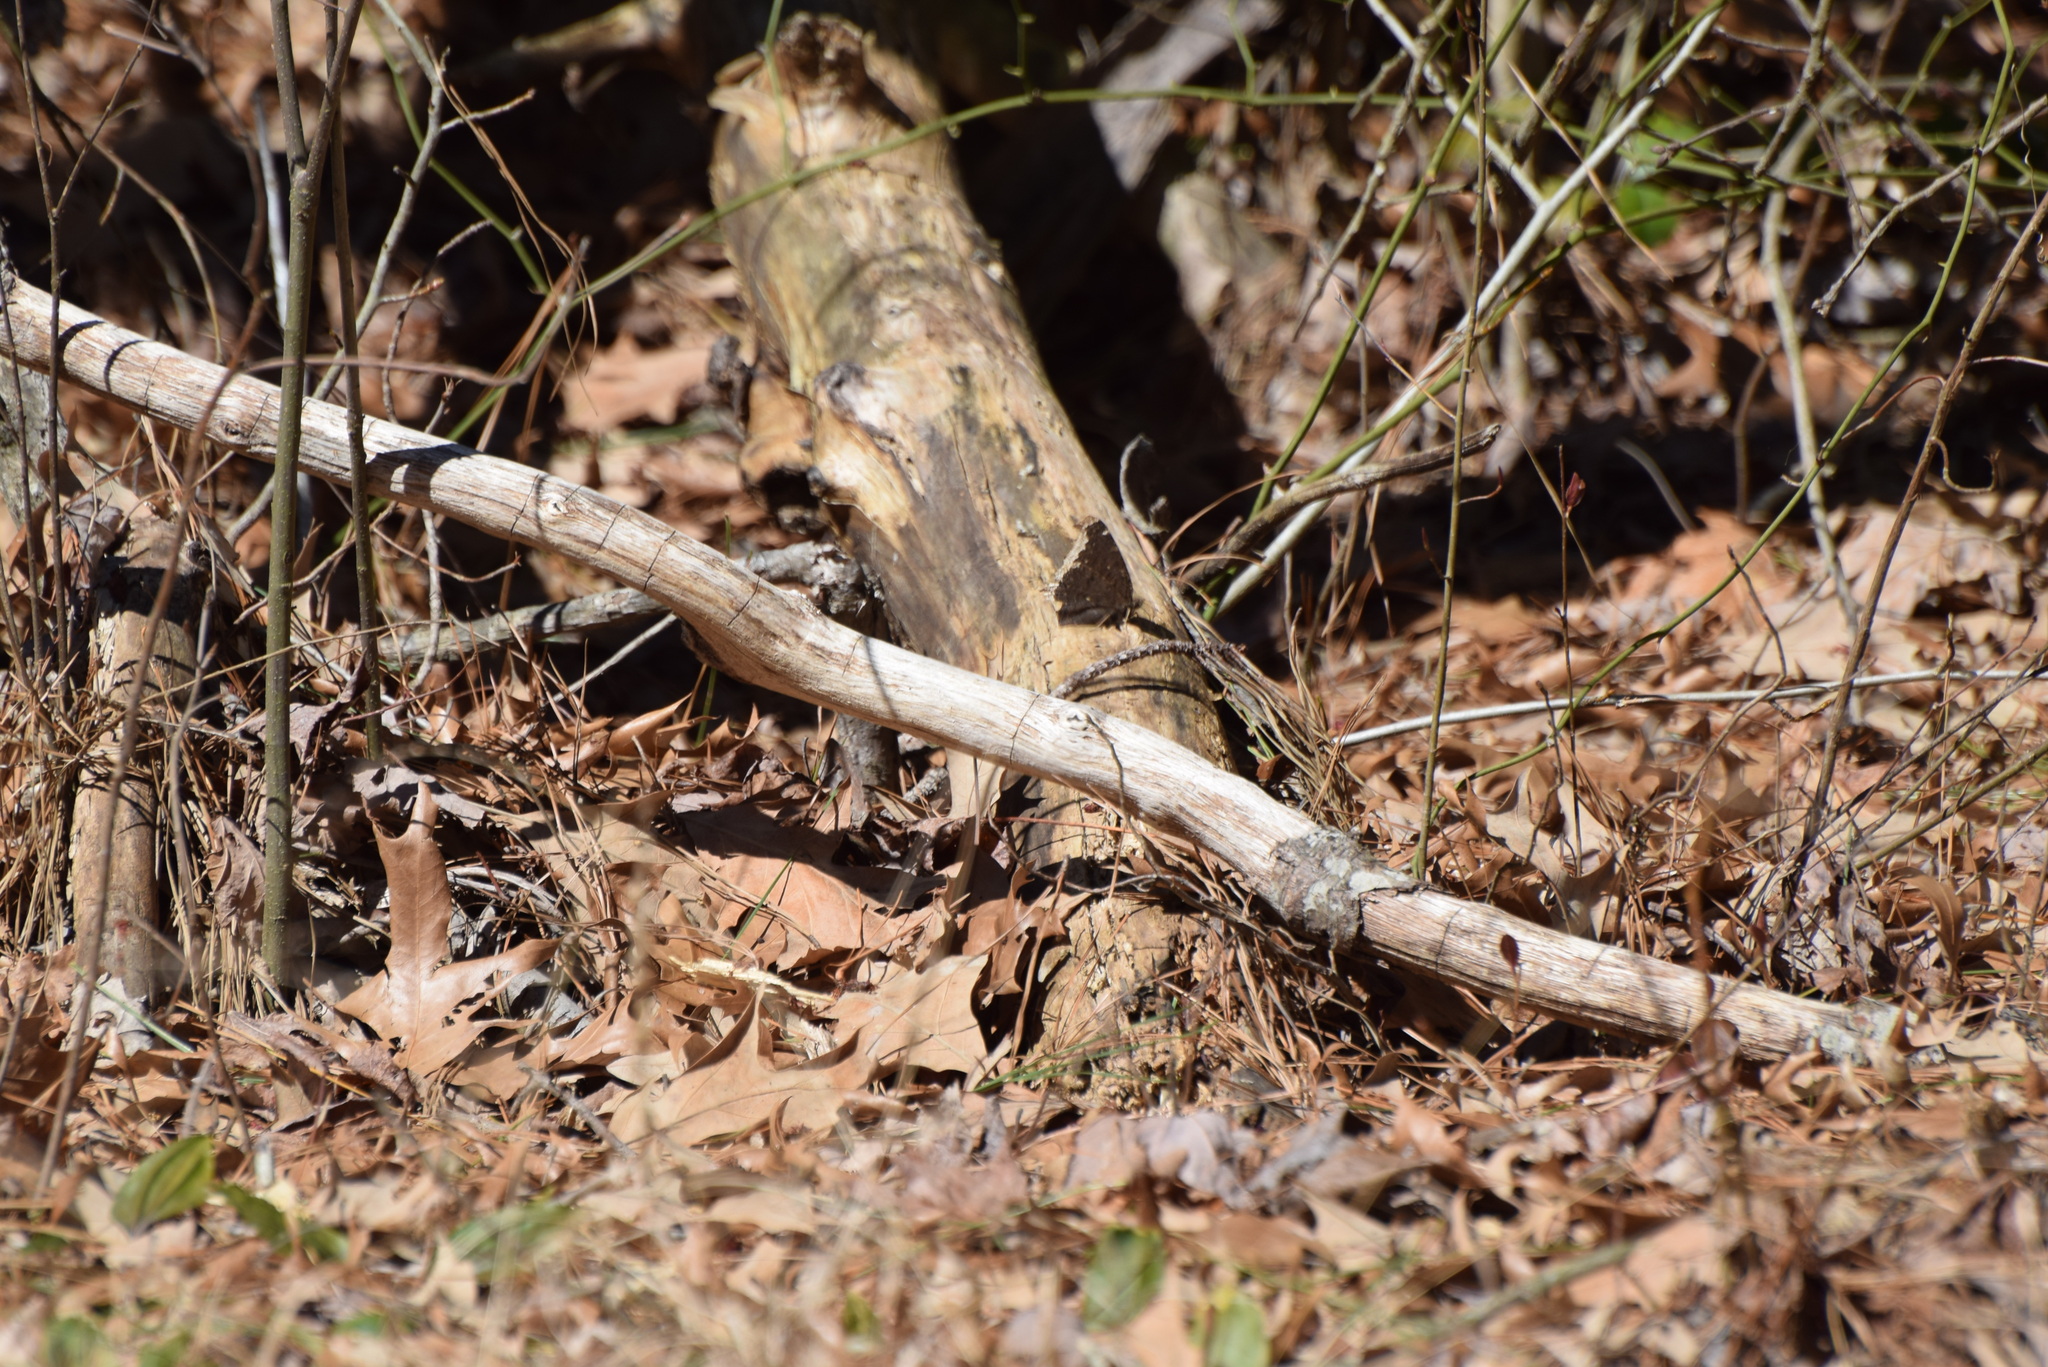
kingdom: Animalia
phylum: Arthropoda
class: Insecta
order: Lepidoptera
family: Nymphalidae
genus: Nymphalis
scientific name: Nymphalis antiopa
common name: Camberwell beauty
